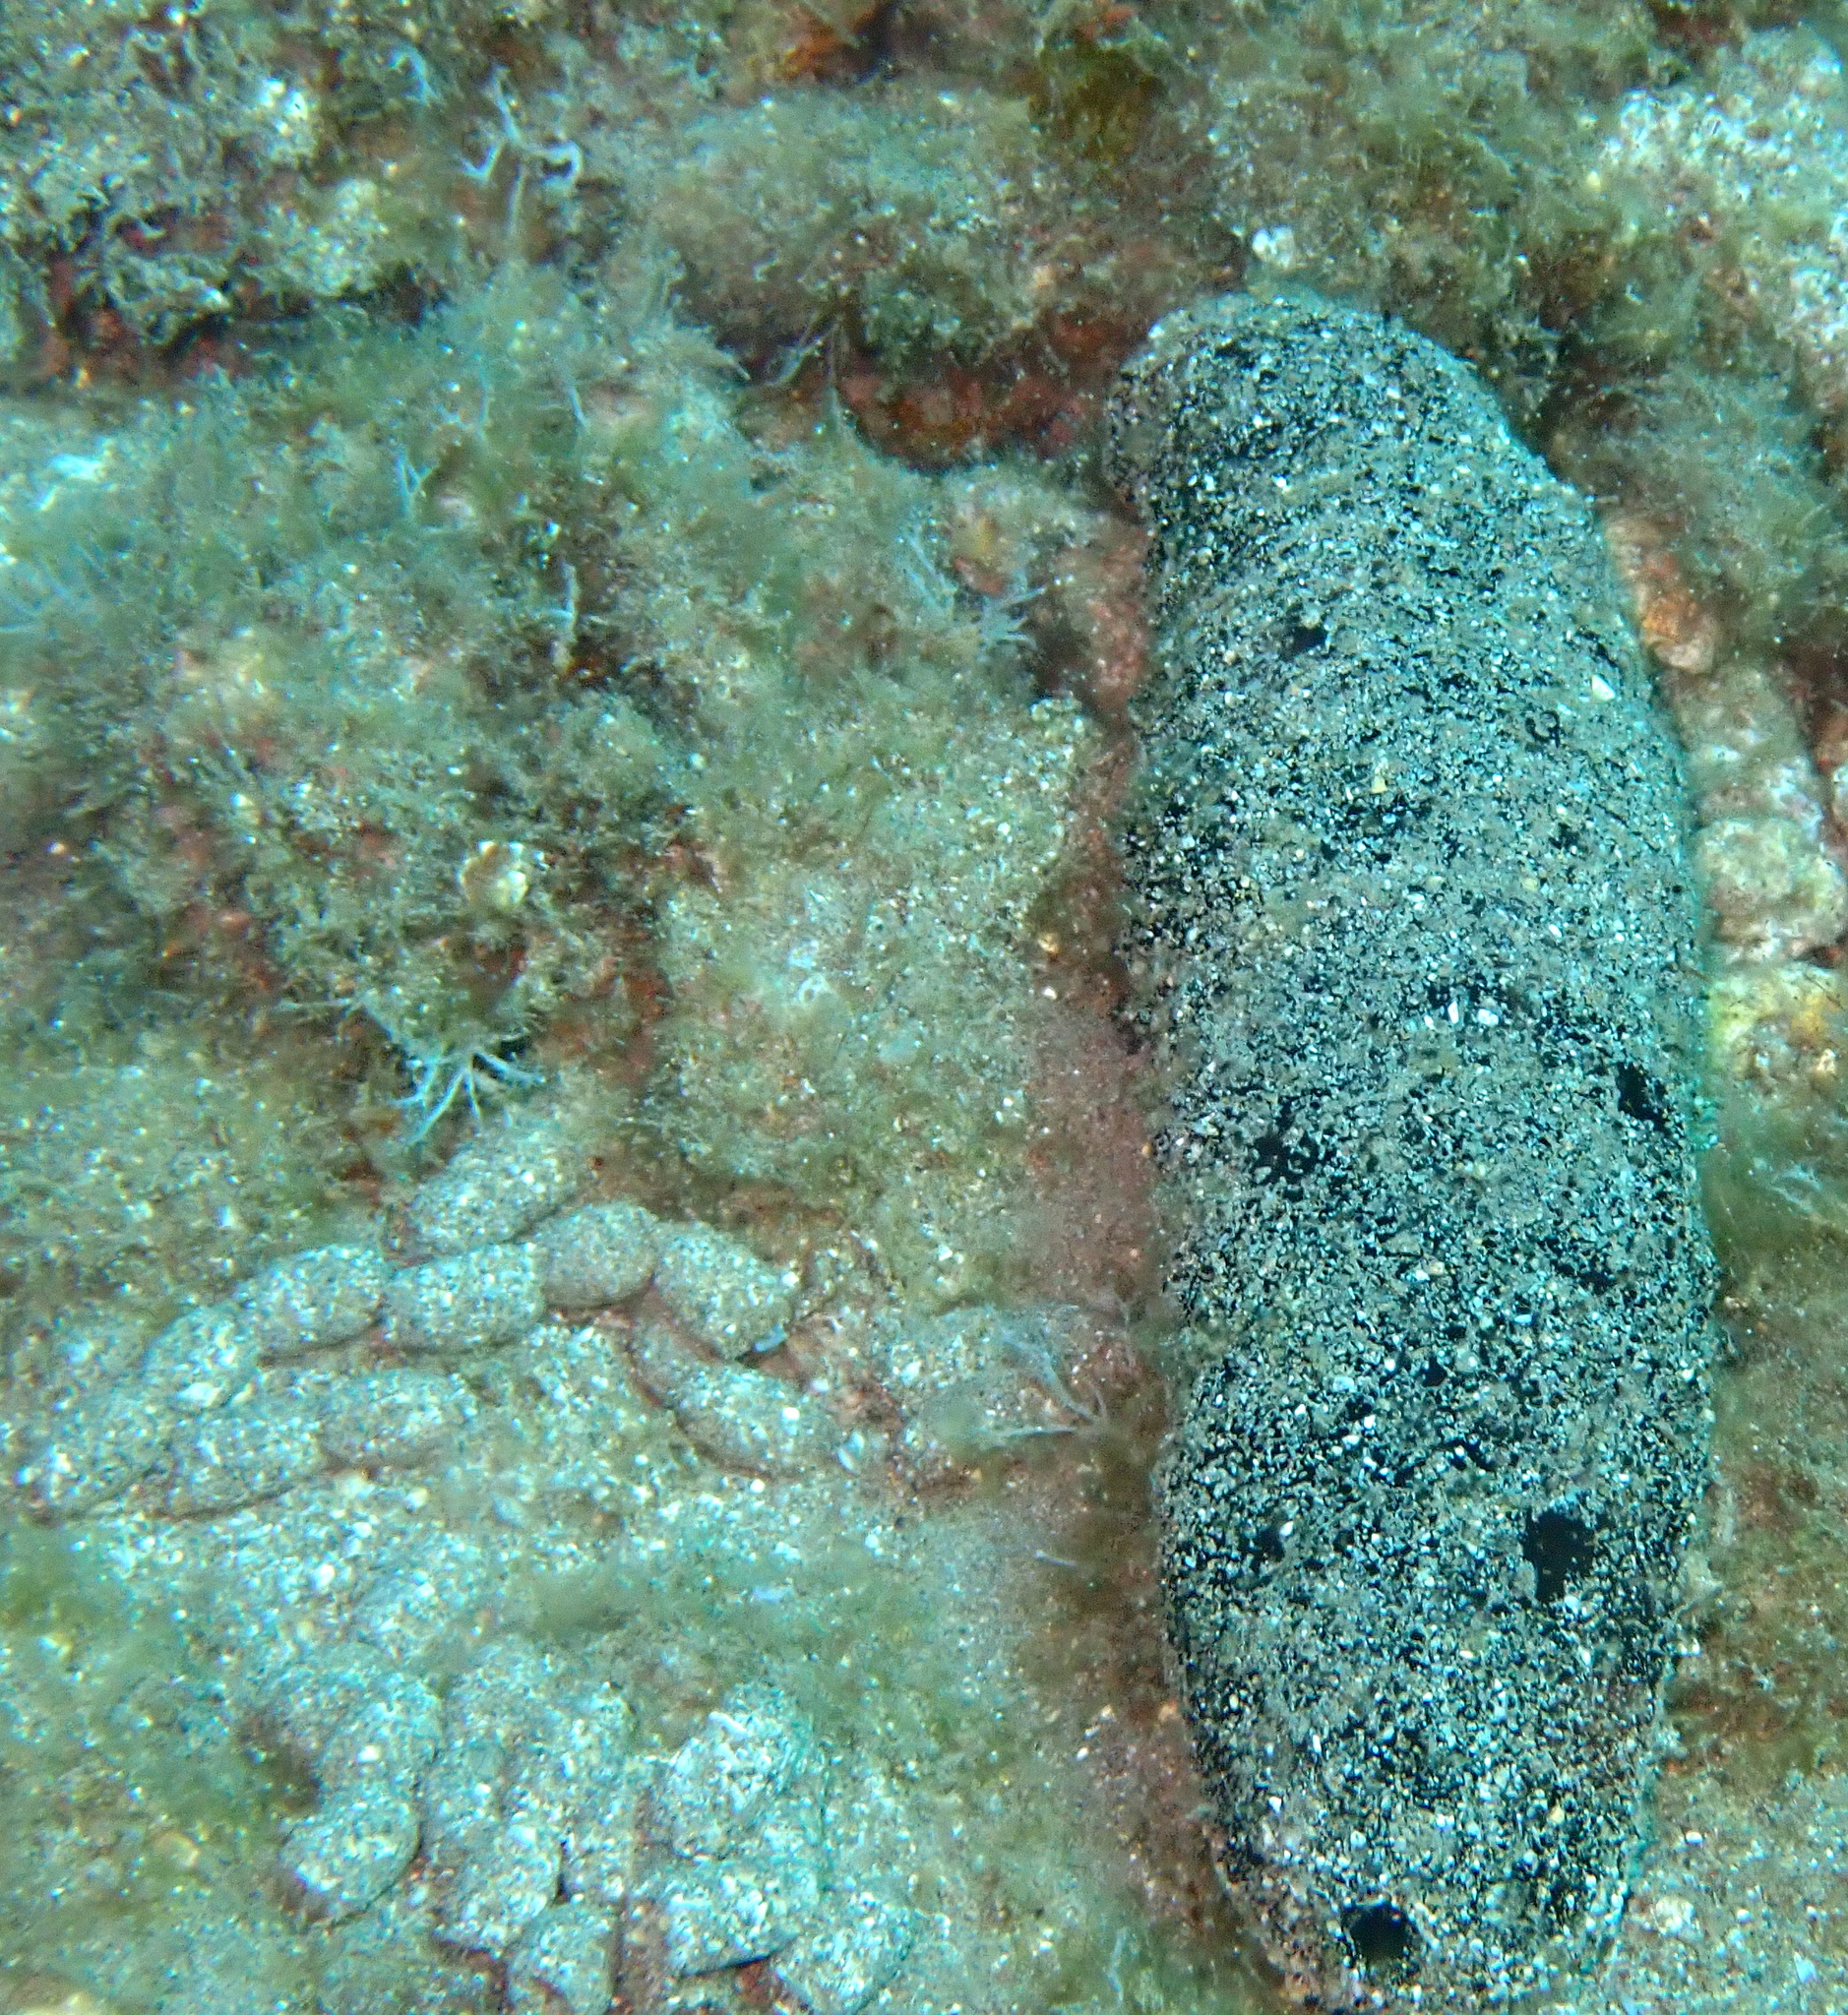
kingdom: Animalia
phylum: Echinodermata
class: Holothuroidea
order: Holothuriida
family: Holothuriidae
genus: Holothuria
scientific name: Holothuria atra
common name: Lollyfish
